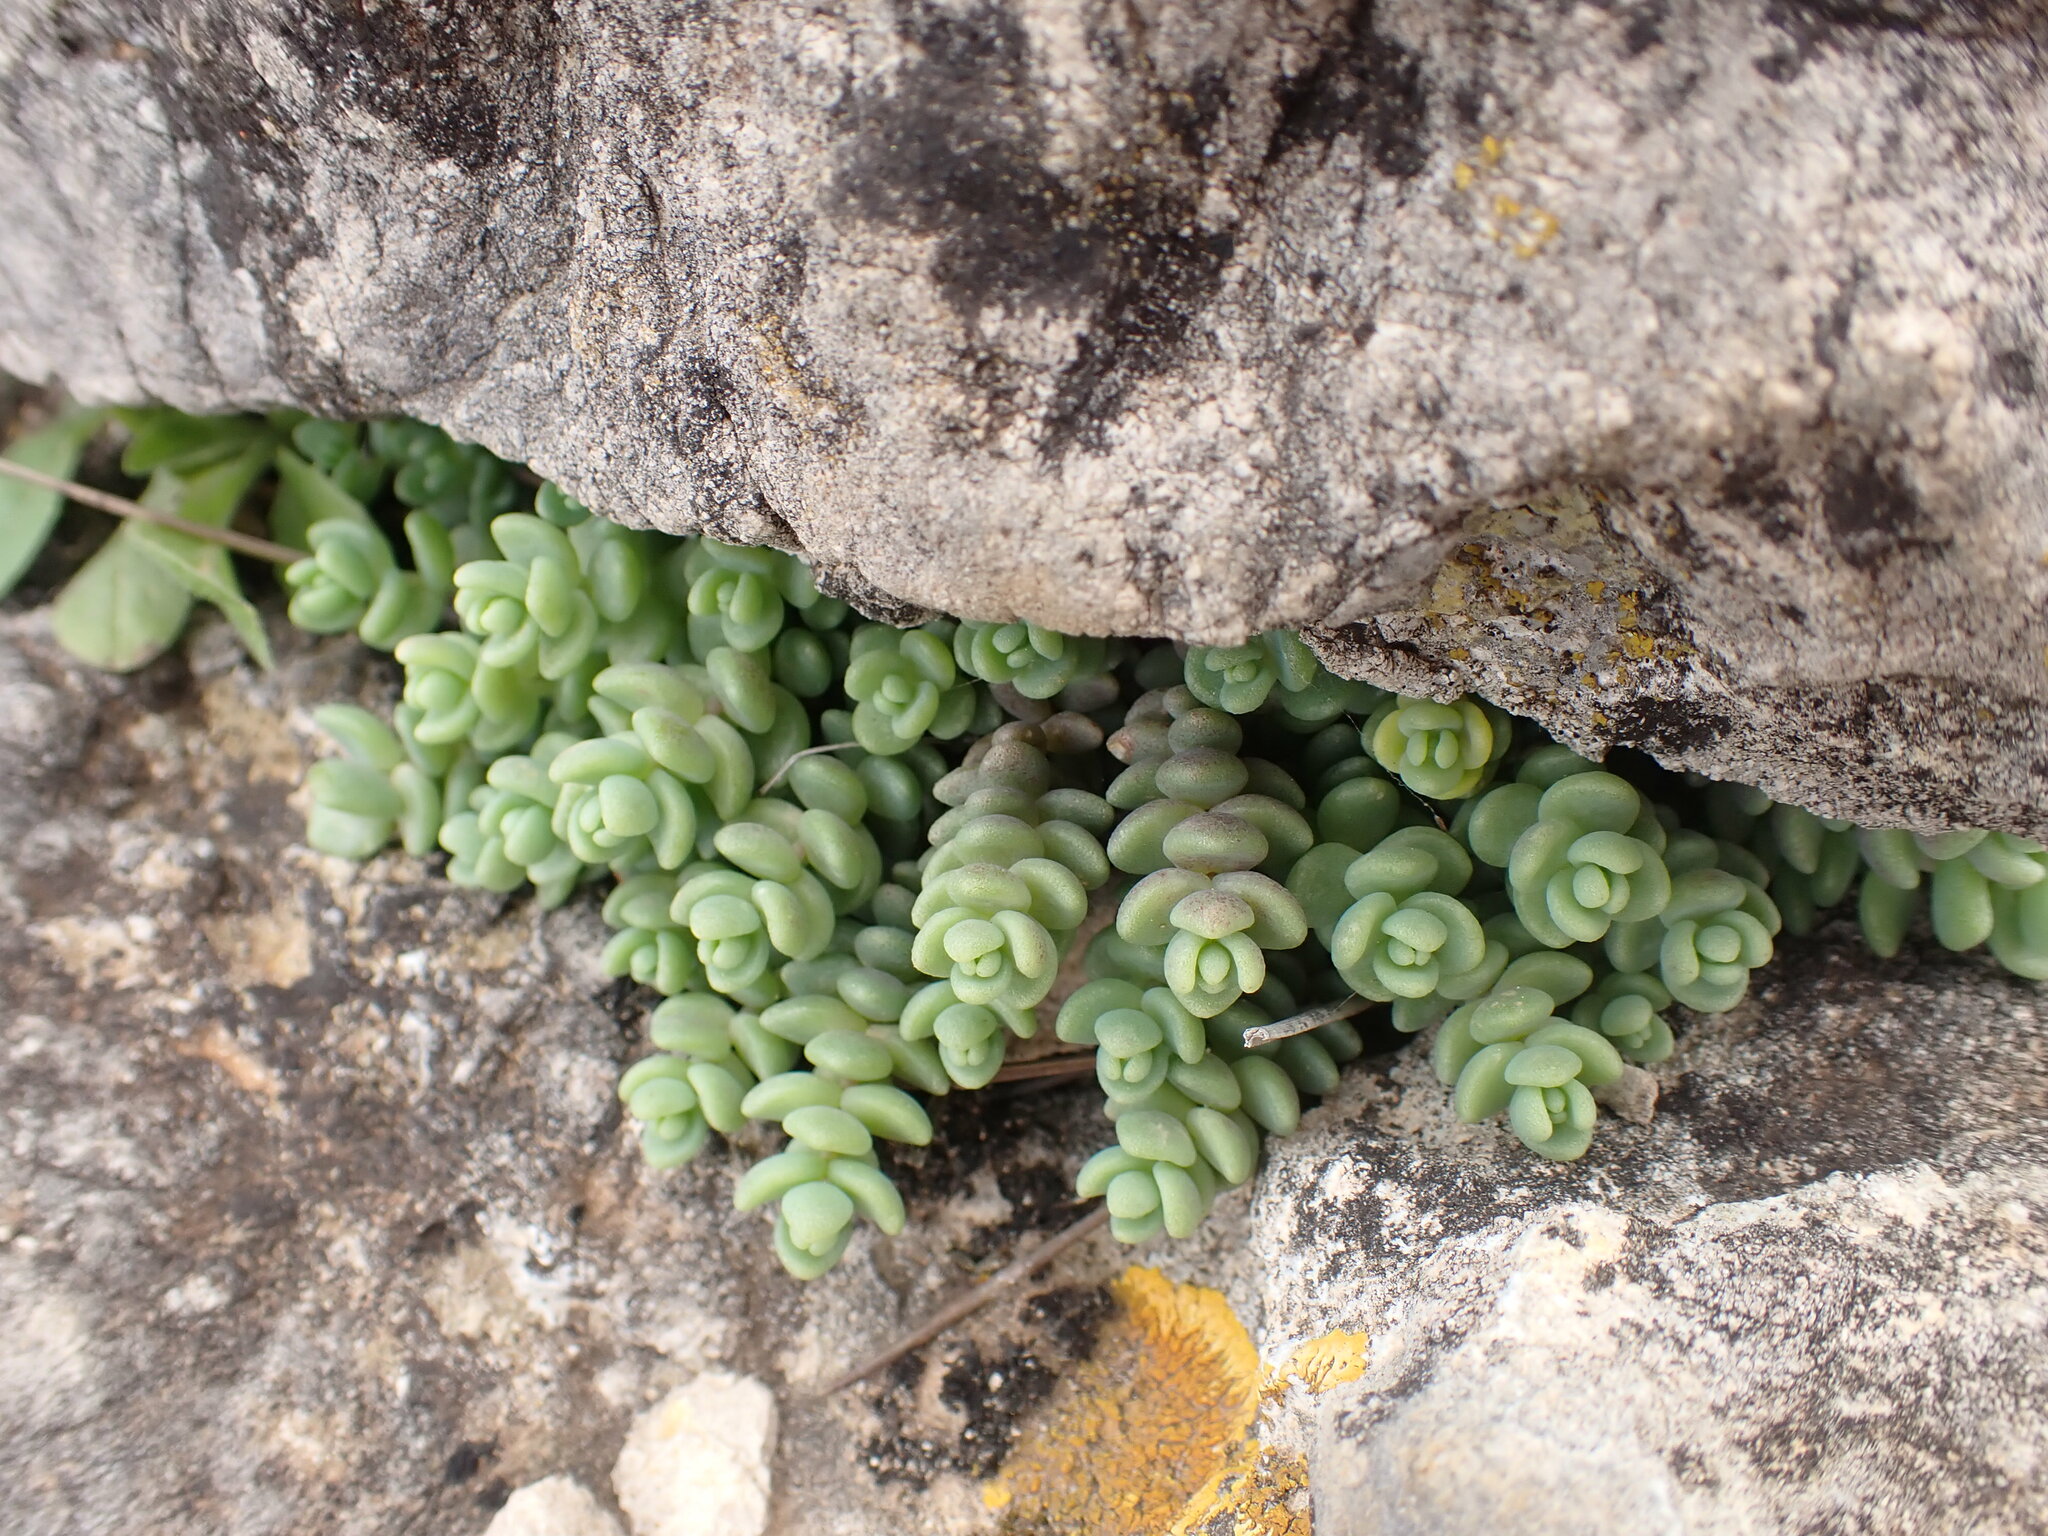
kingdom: Plantae
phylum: Tracheophyta
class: Magnoliopsida
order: Saxifragales
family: Crassulaceae
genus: Sedum
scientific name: Sedum dasyphyllum
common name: Thick-leaf stonecrop
